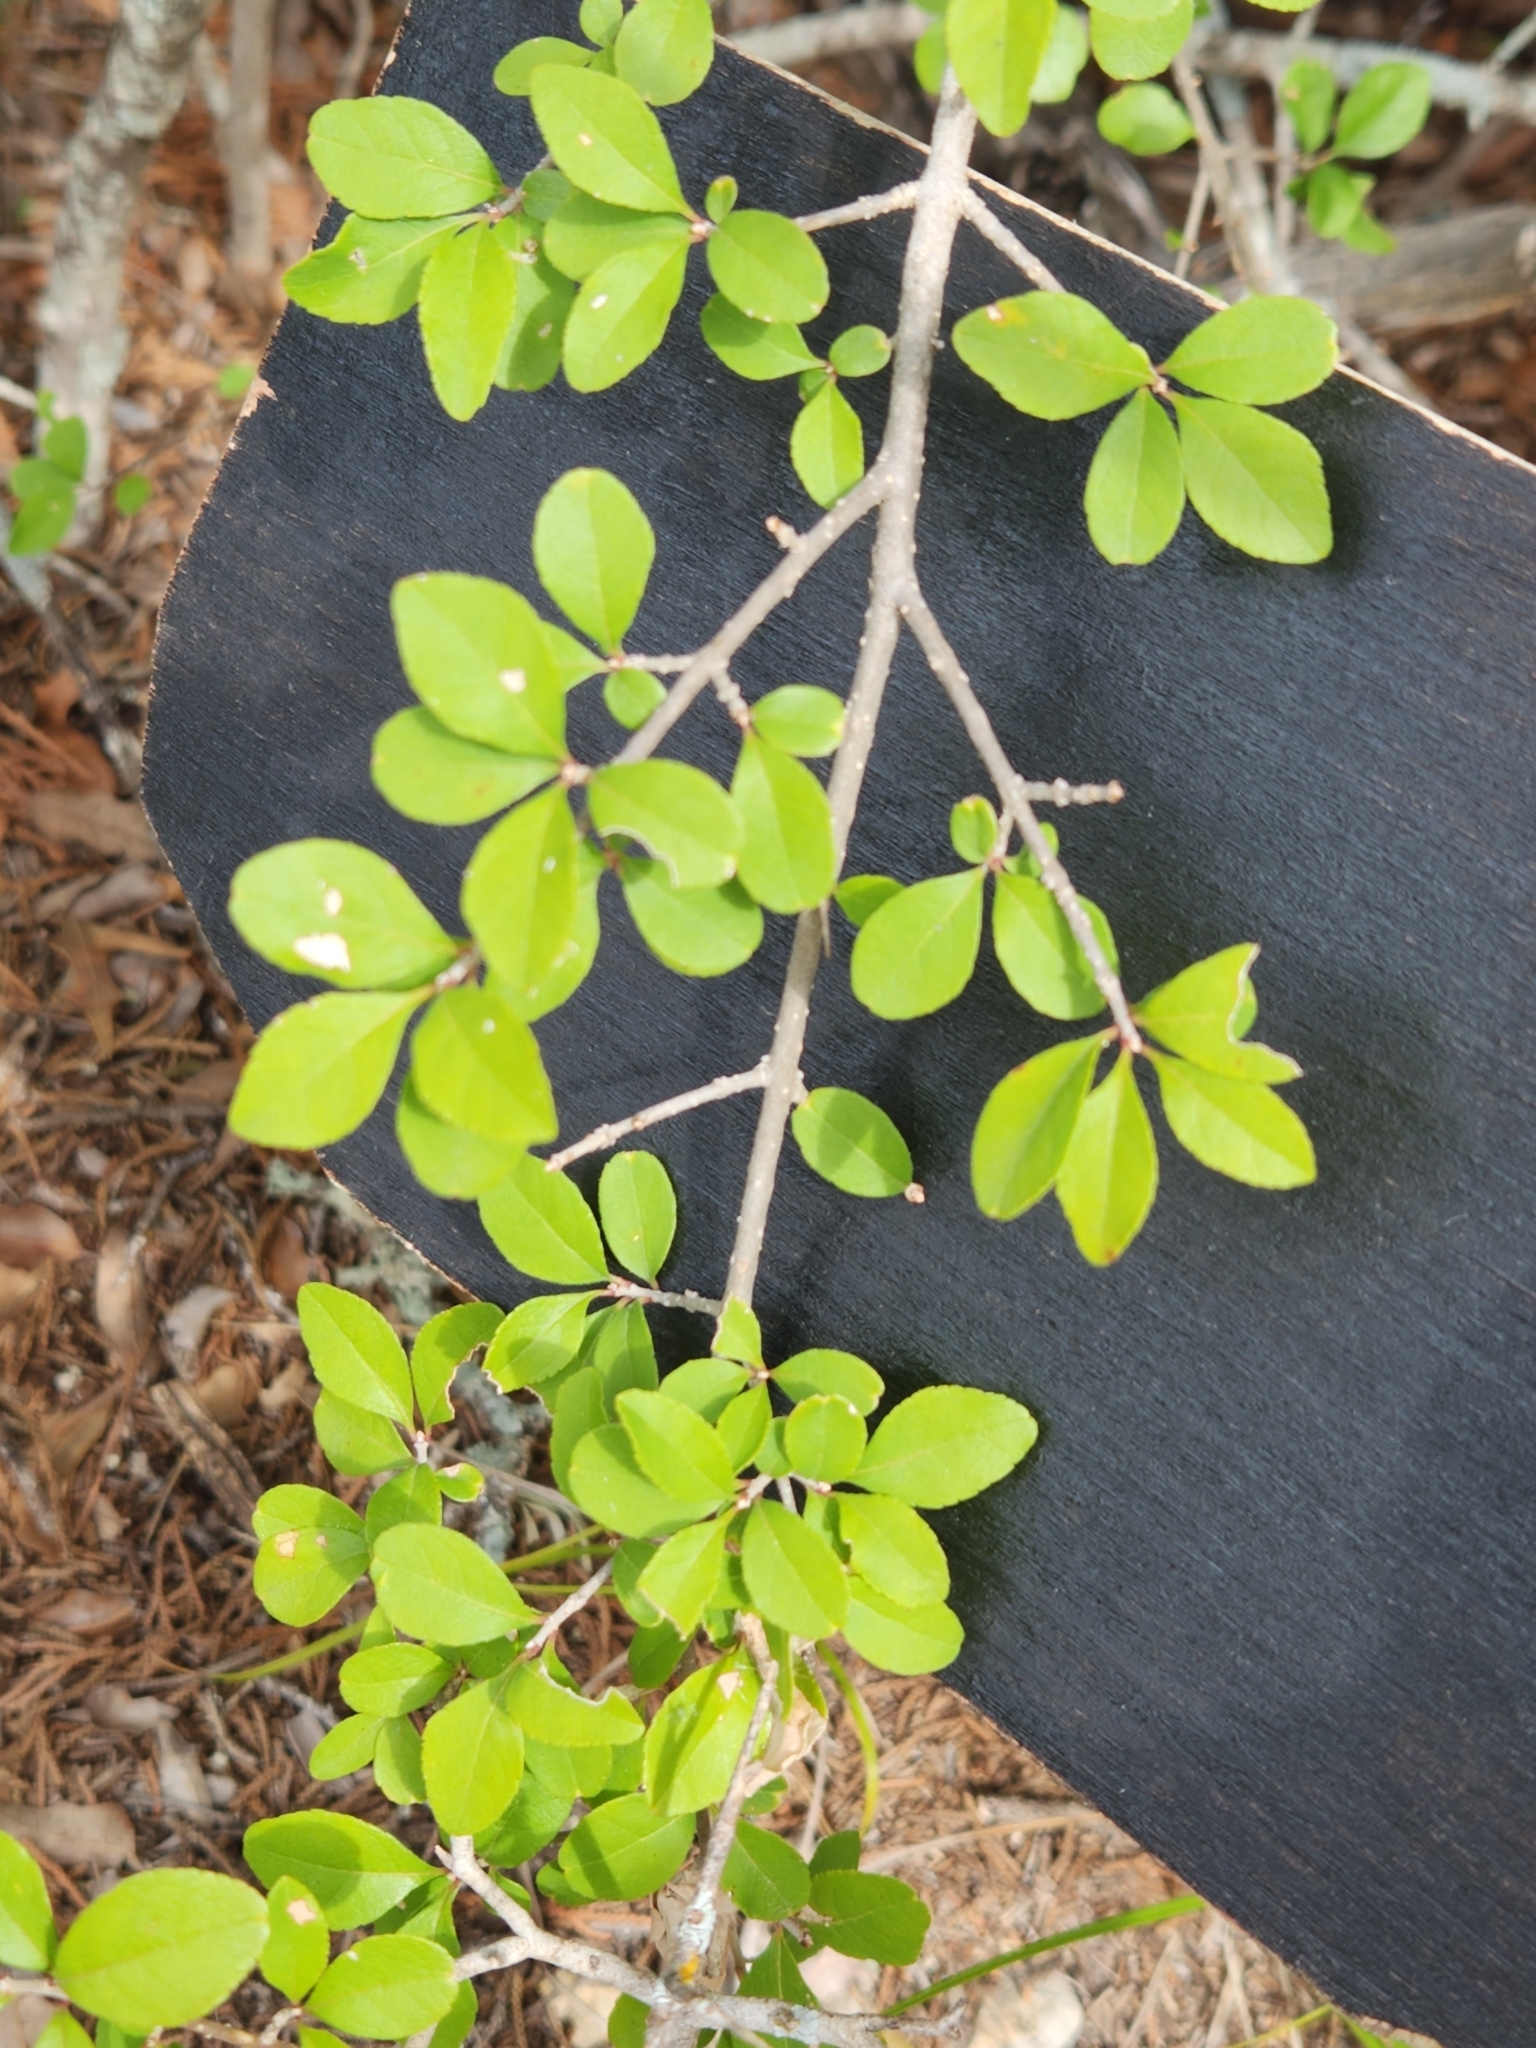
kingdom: Plantae
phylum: Tracheophyta
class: Magnoliopsida
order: Lamiales
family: Oleaceae
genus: Forestiera
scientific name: Forestiera pubescens
